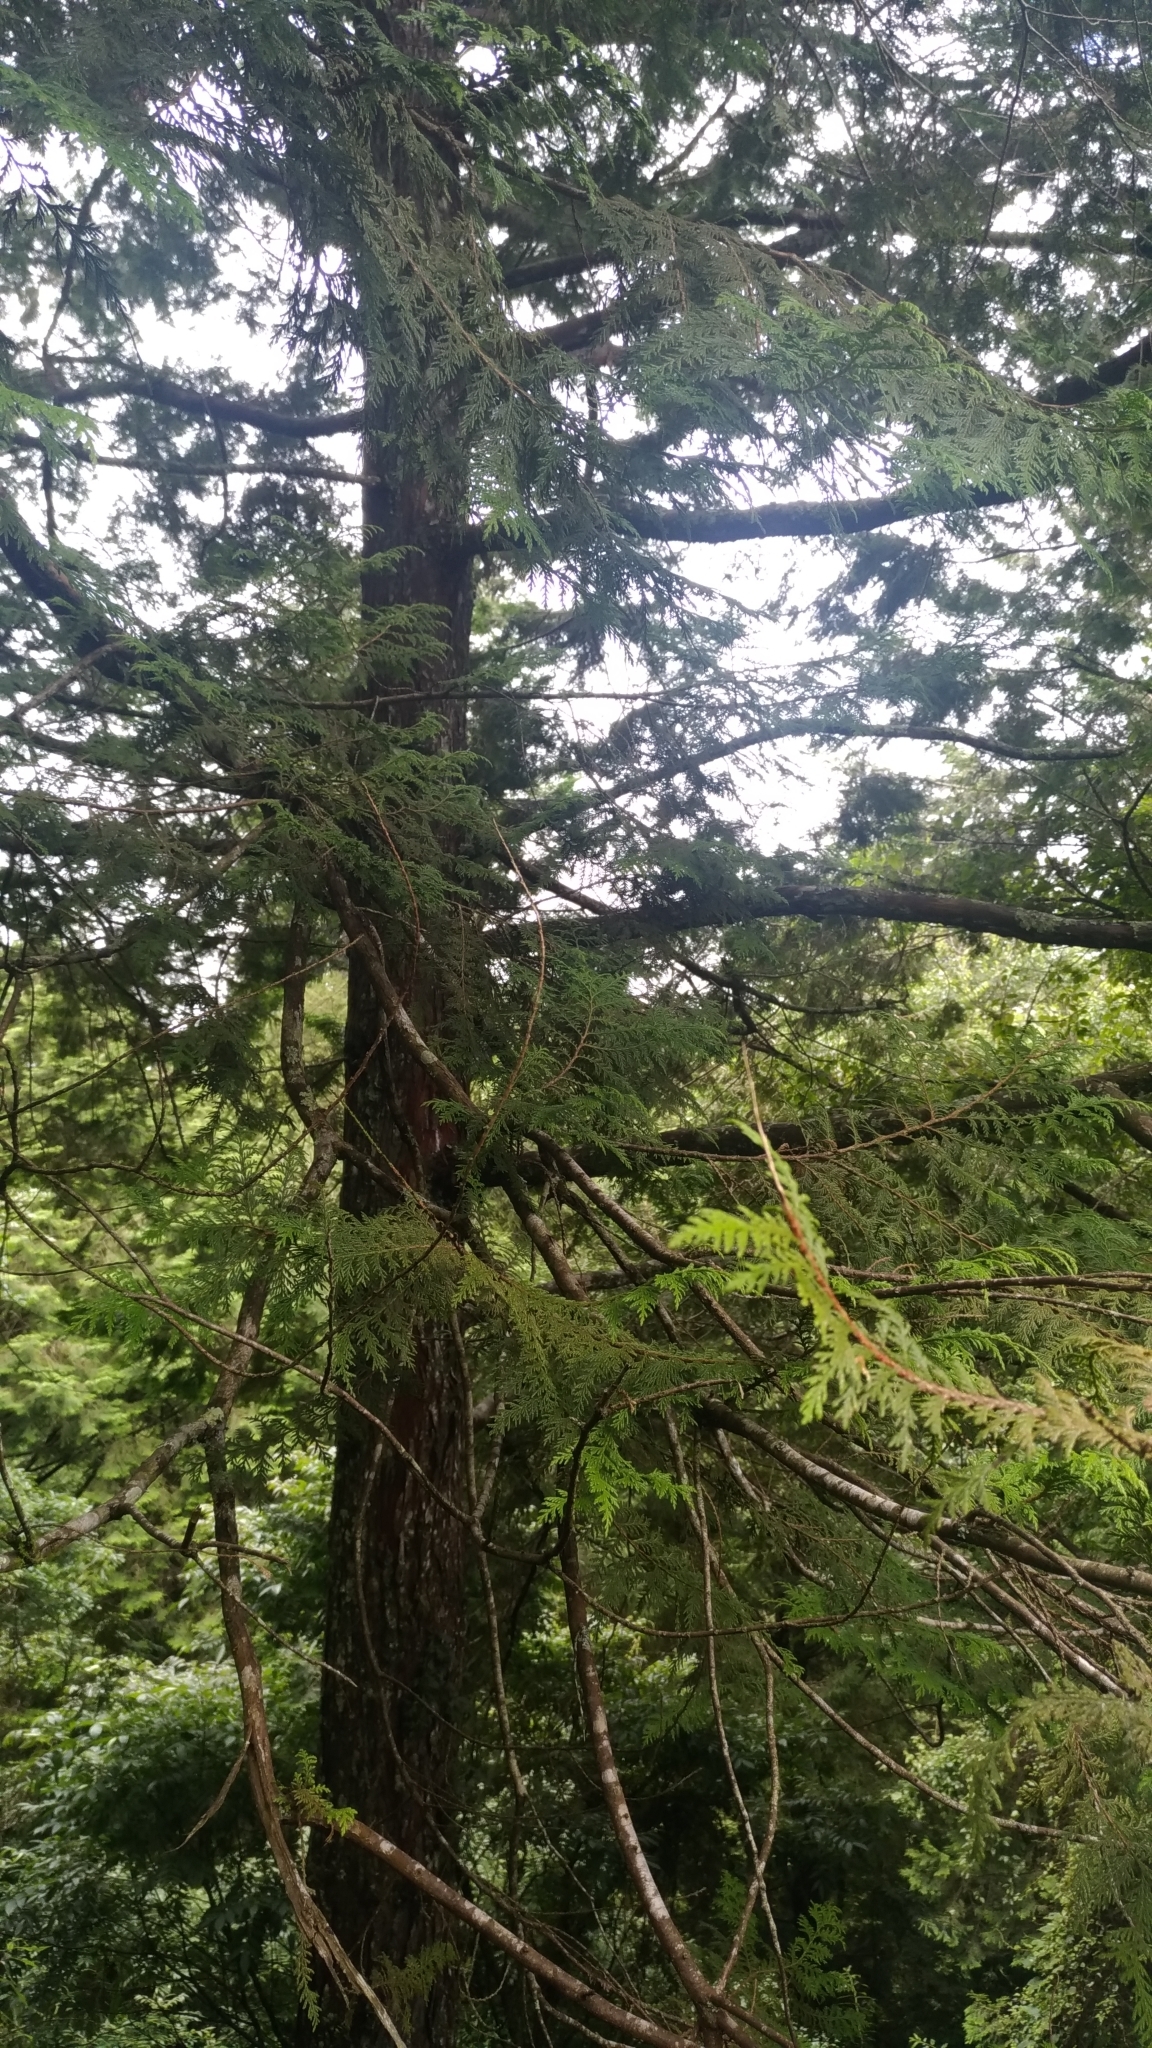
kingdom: Plantae
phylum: Tracheophyta
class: Pinopsida
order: Pinales
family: Cupressaceae
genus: Chamaecyparis
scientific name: Chamaecyparis formosensis
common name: Formosan cypress
